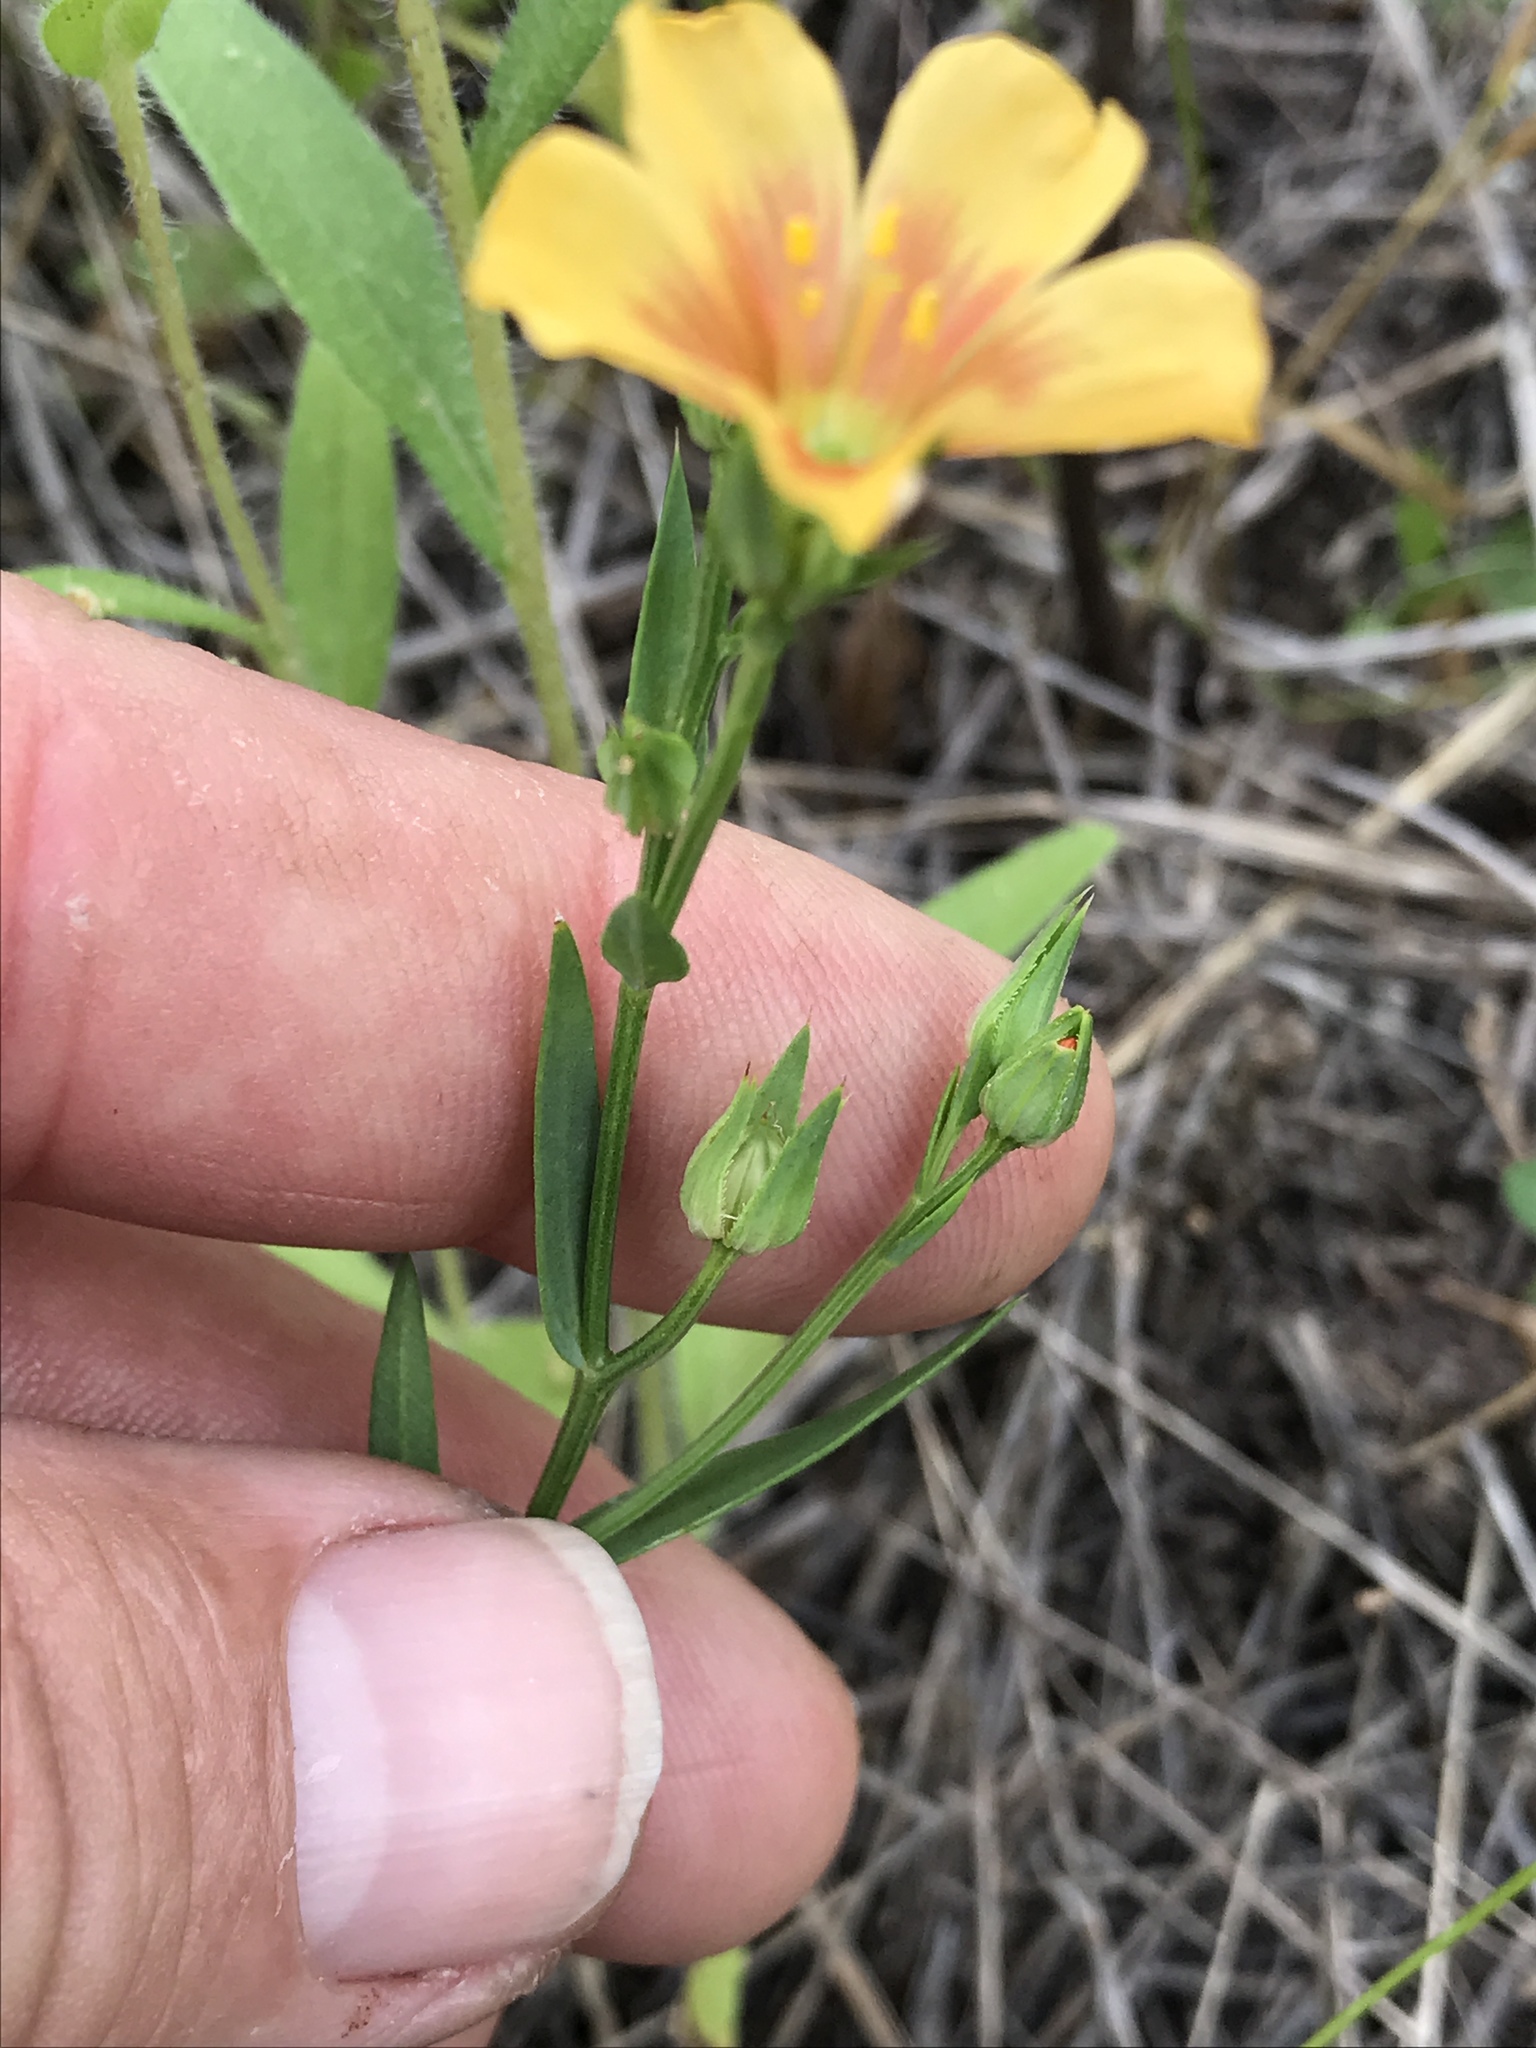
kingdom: Plantae
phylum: Tracheophyta
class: Magnoliopsida
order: Malpighiales
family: Linaceae
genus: Linum
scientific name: Linum rigidum
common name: Stiff-stem flax
